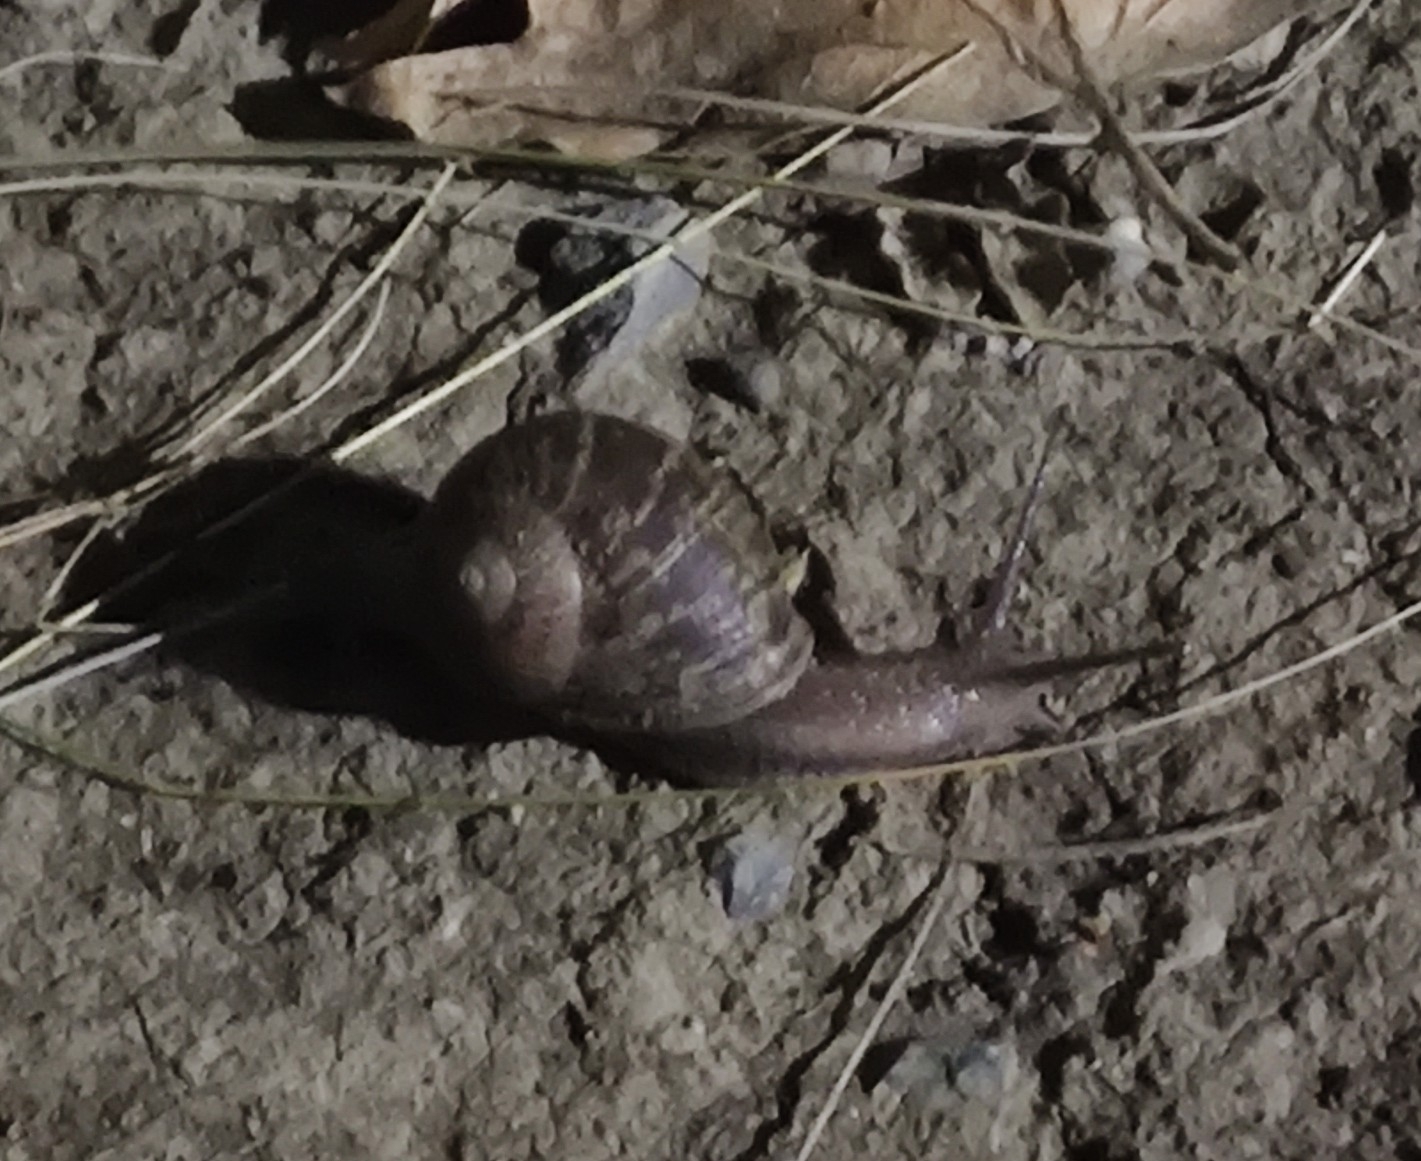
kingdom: Animalia
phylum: Mollusca
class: Gastropoda
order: Stylommatophora
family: Helicidae
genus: Cornu
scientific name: Cornu aspersum
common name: Brown garden snail
